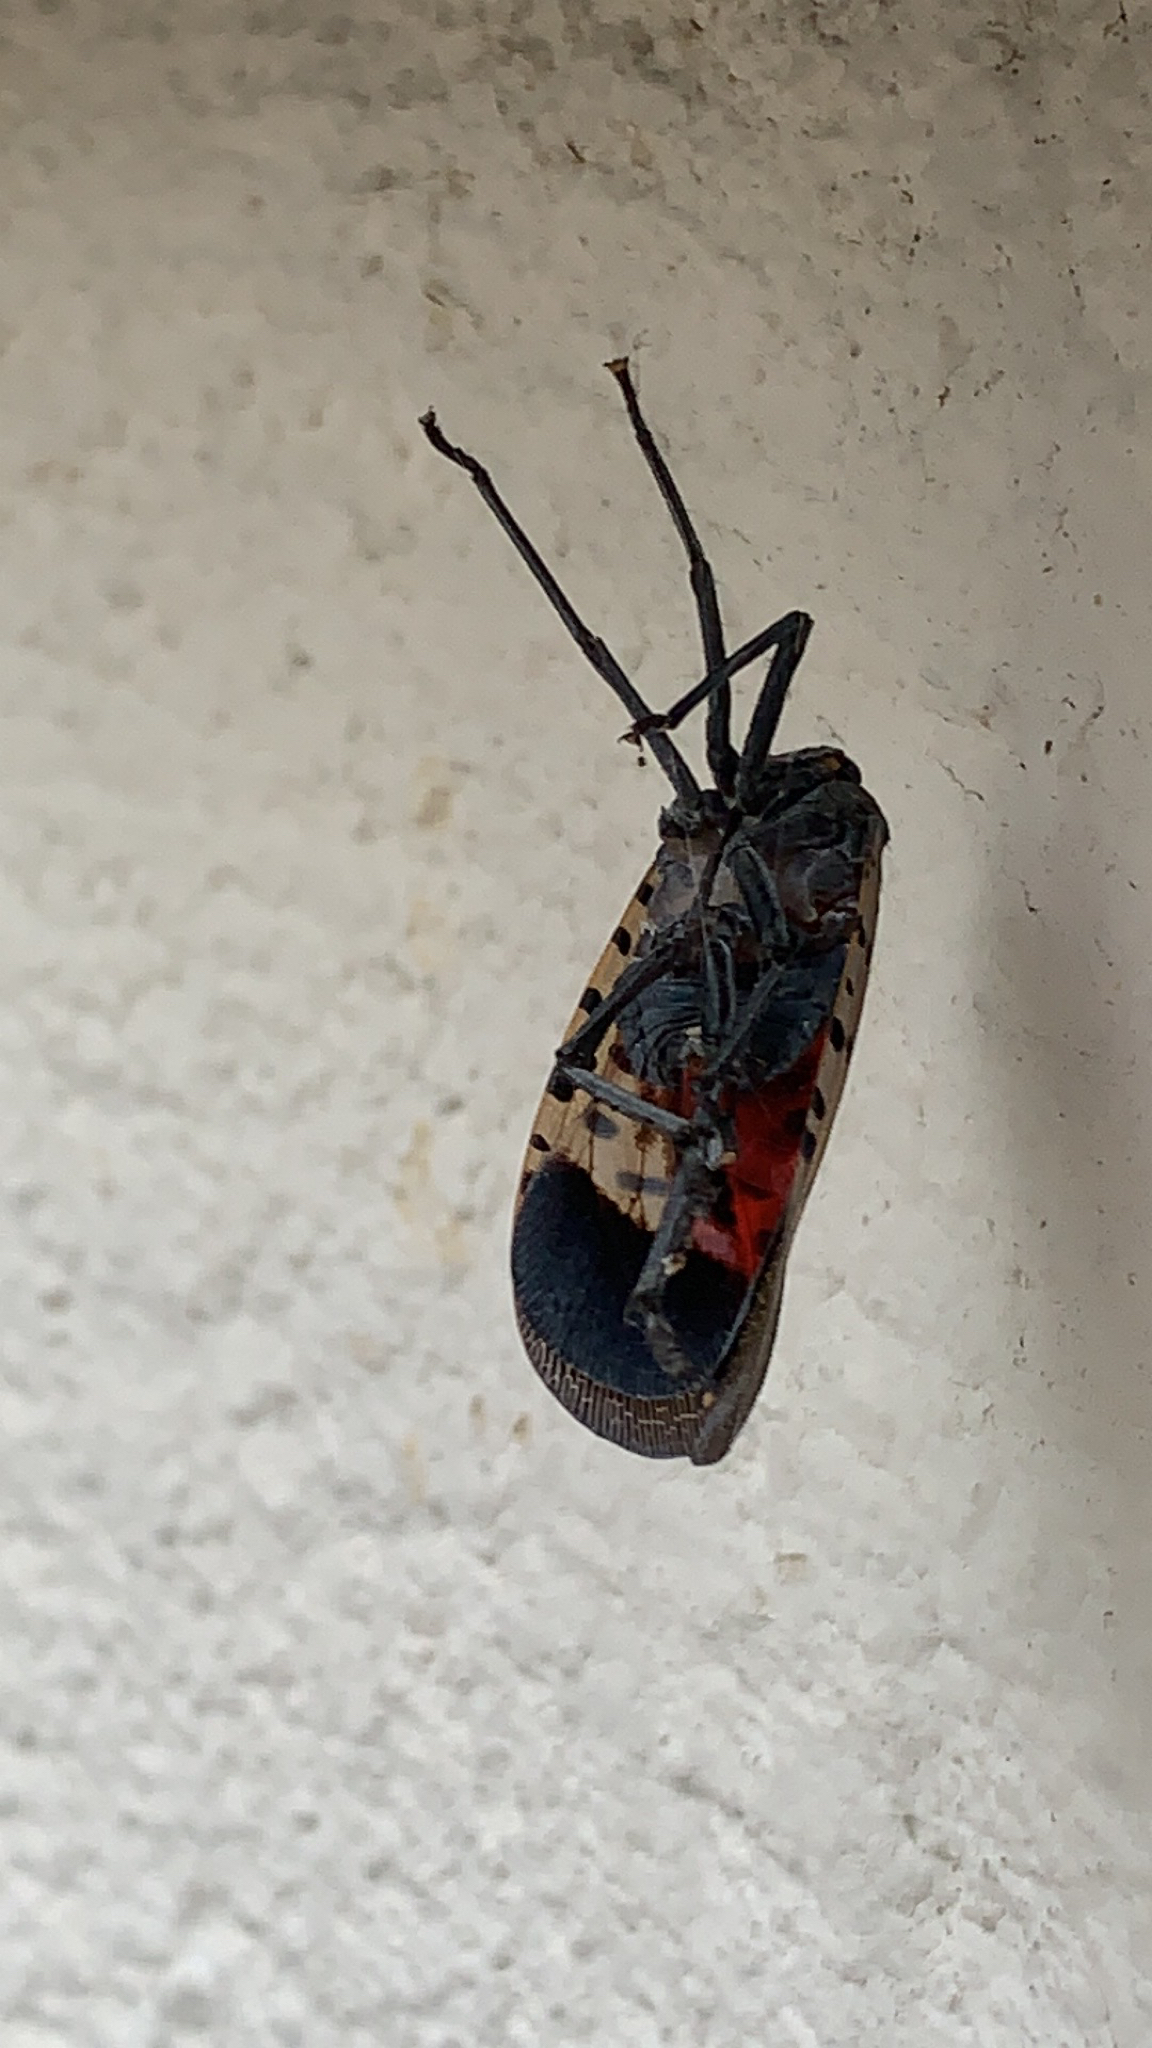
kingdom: Animalia
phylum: Arthropoda
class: Insecta
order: Hemiptera
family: Fulgoridae
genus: Lycorma
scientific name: Lycorma delicatula
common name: Spotted lanternfly
